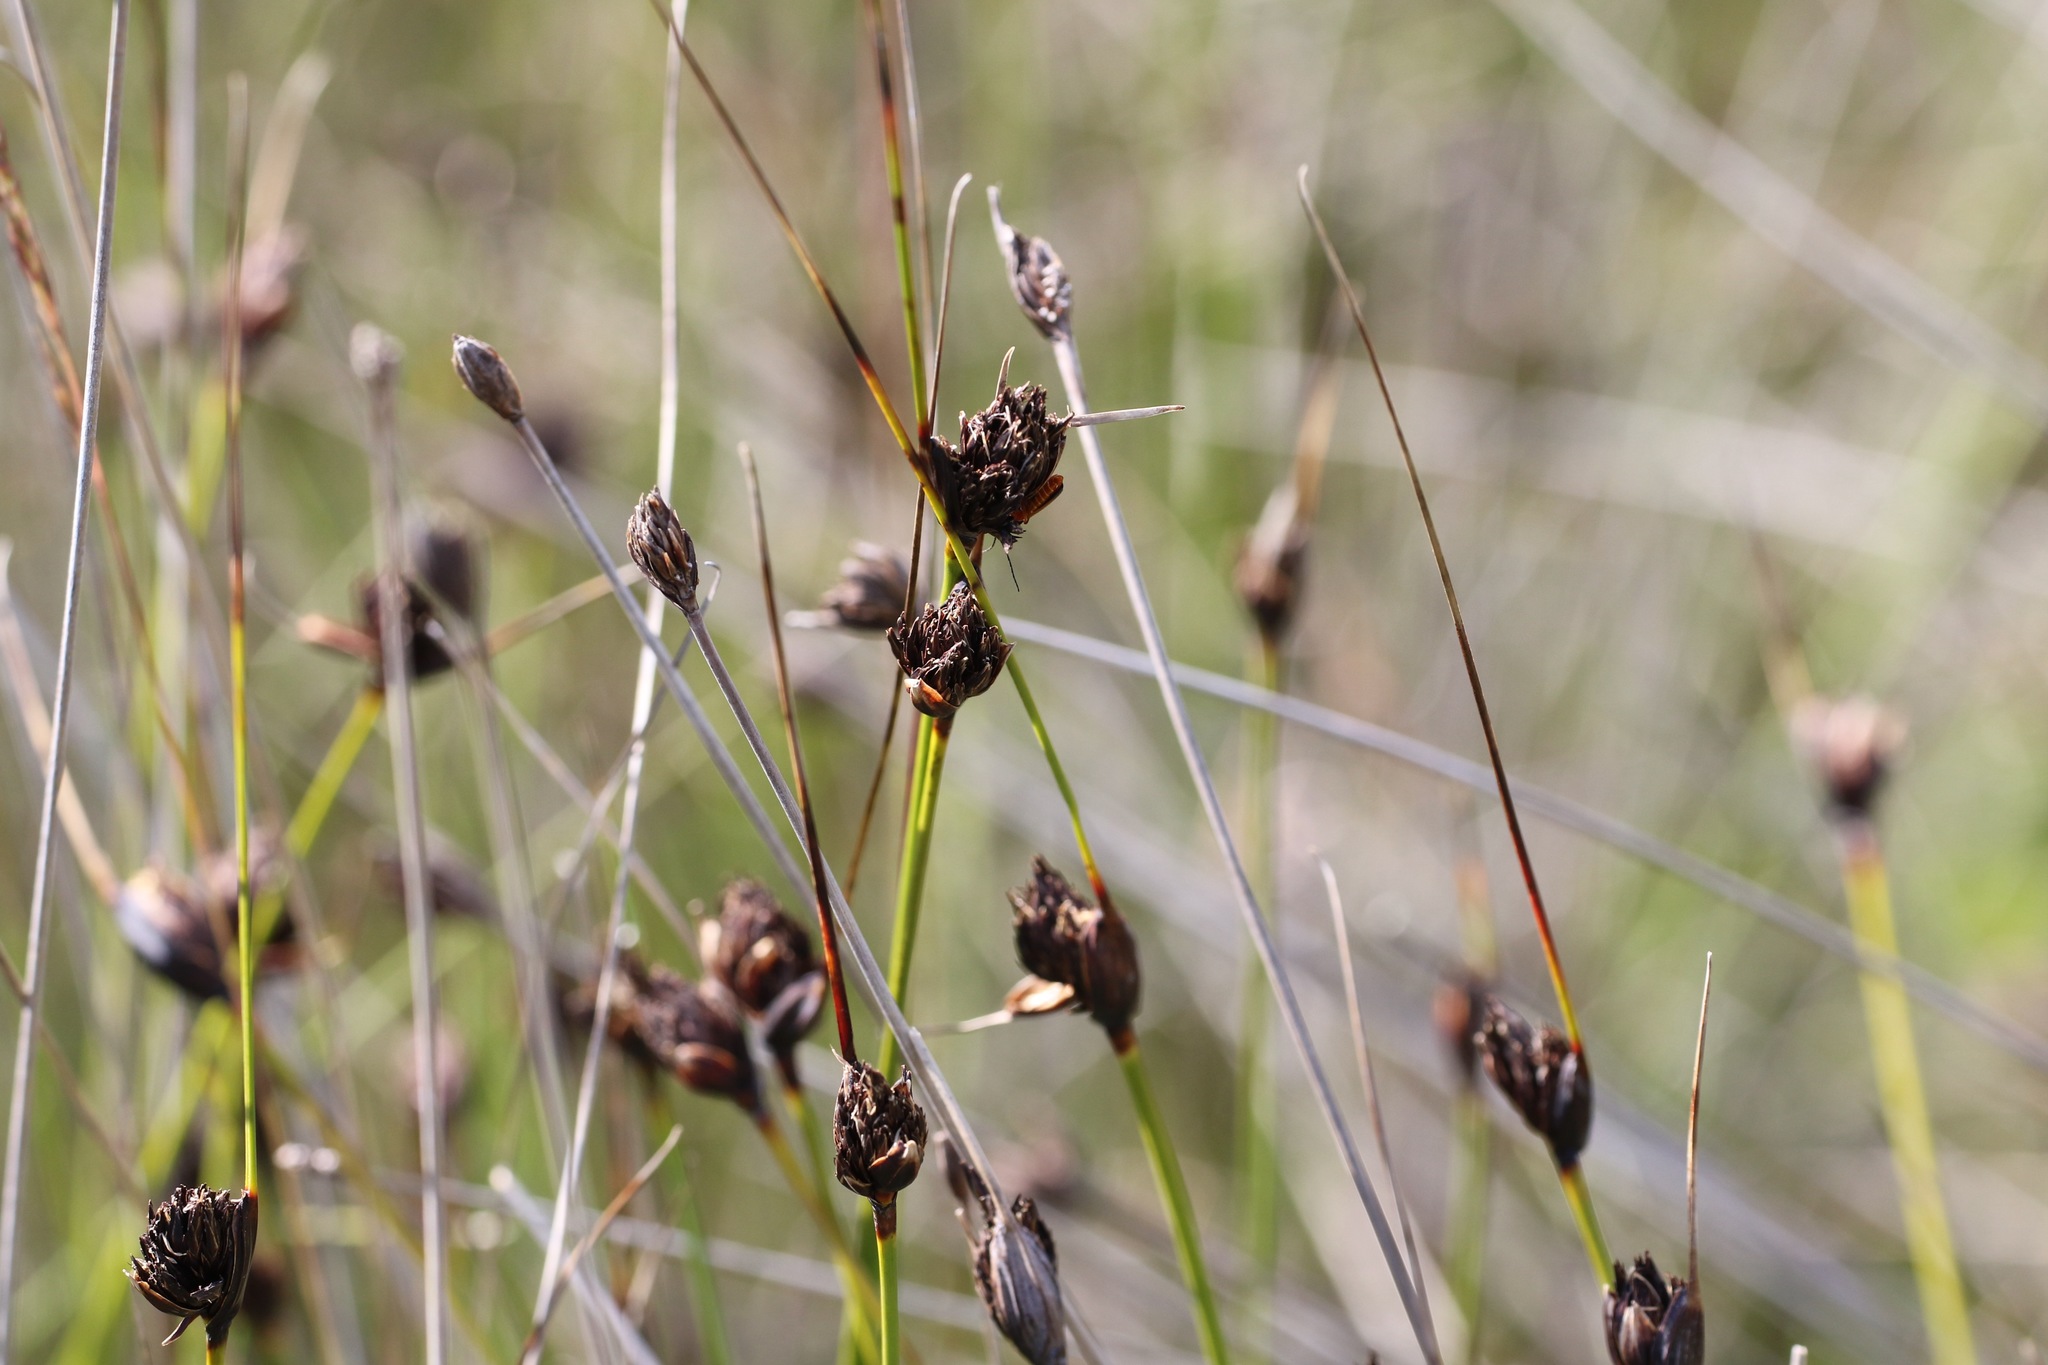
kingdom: Plantae
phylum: Tracheophyta
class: Liliopsida
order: Poales
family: Cyperaceae
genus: Schoenus
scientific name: Schoenus nigricans
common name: Black bog-rush
